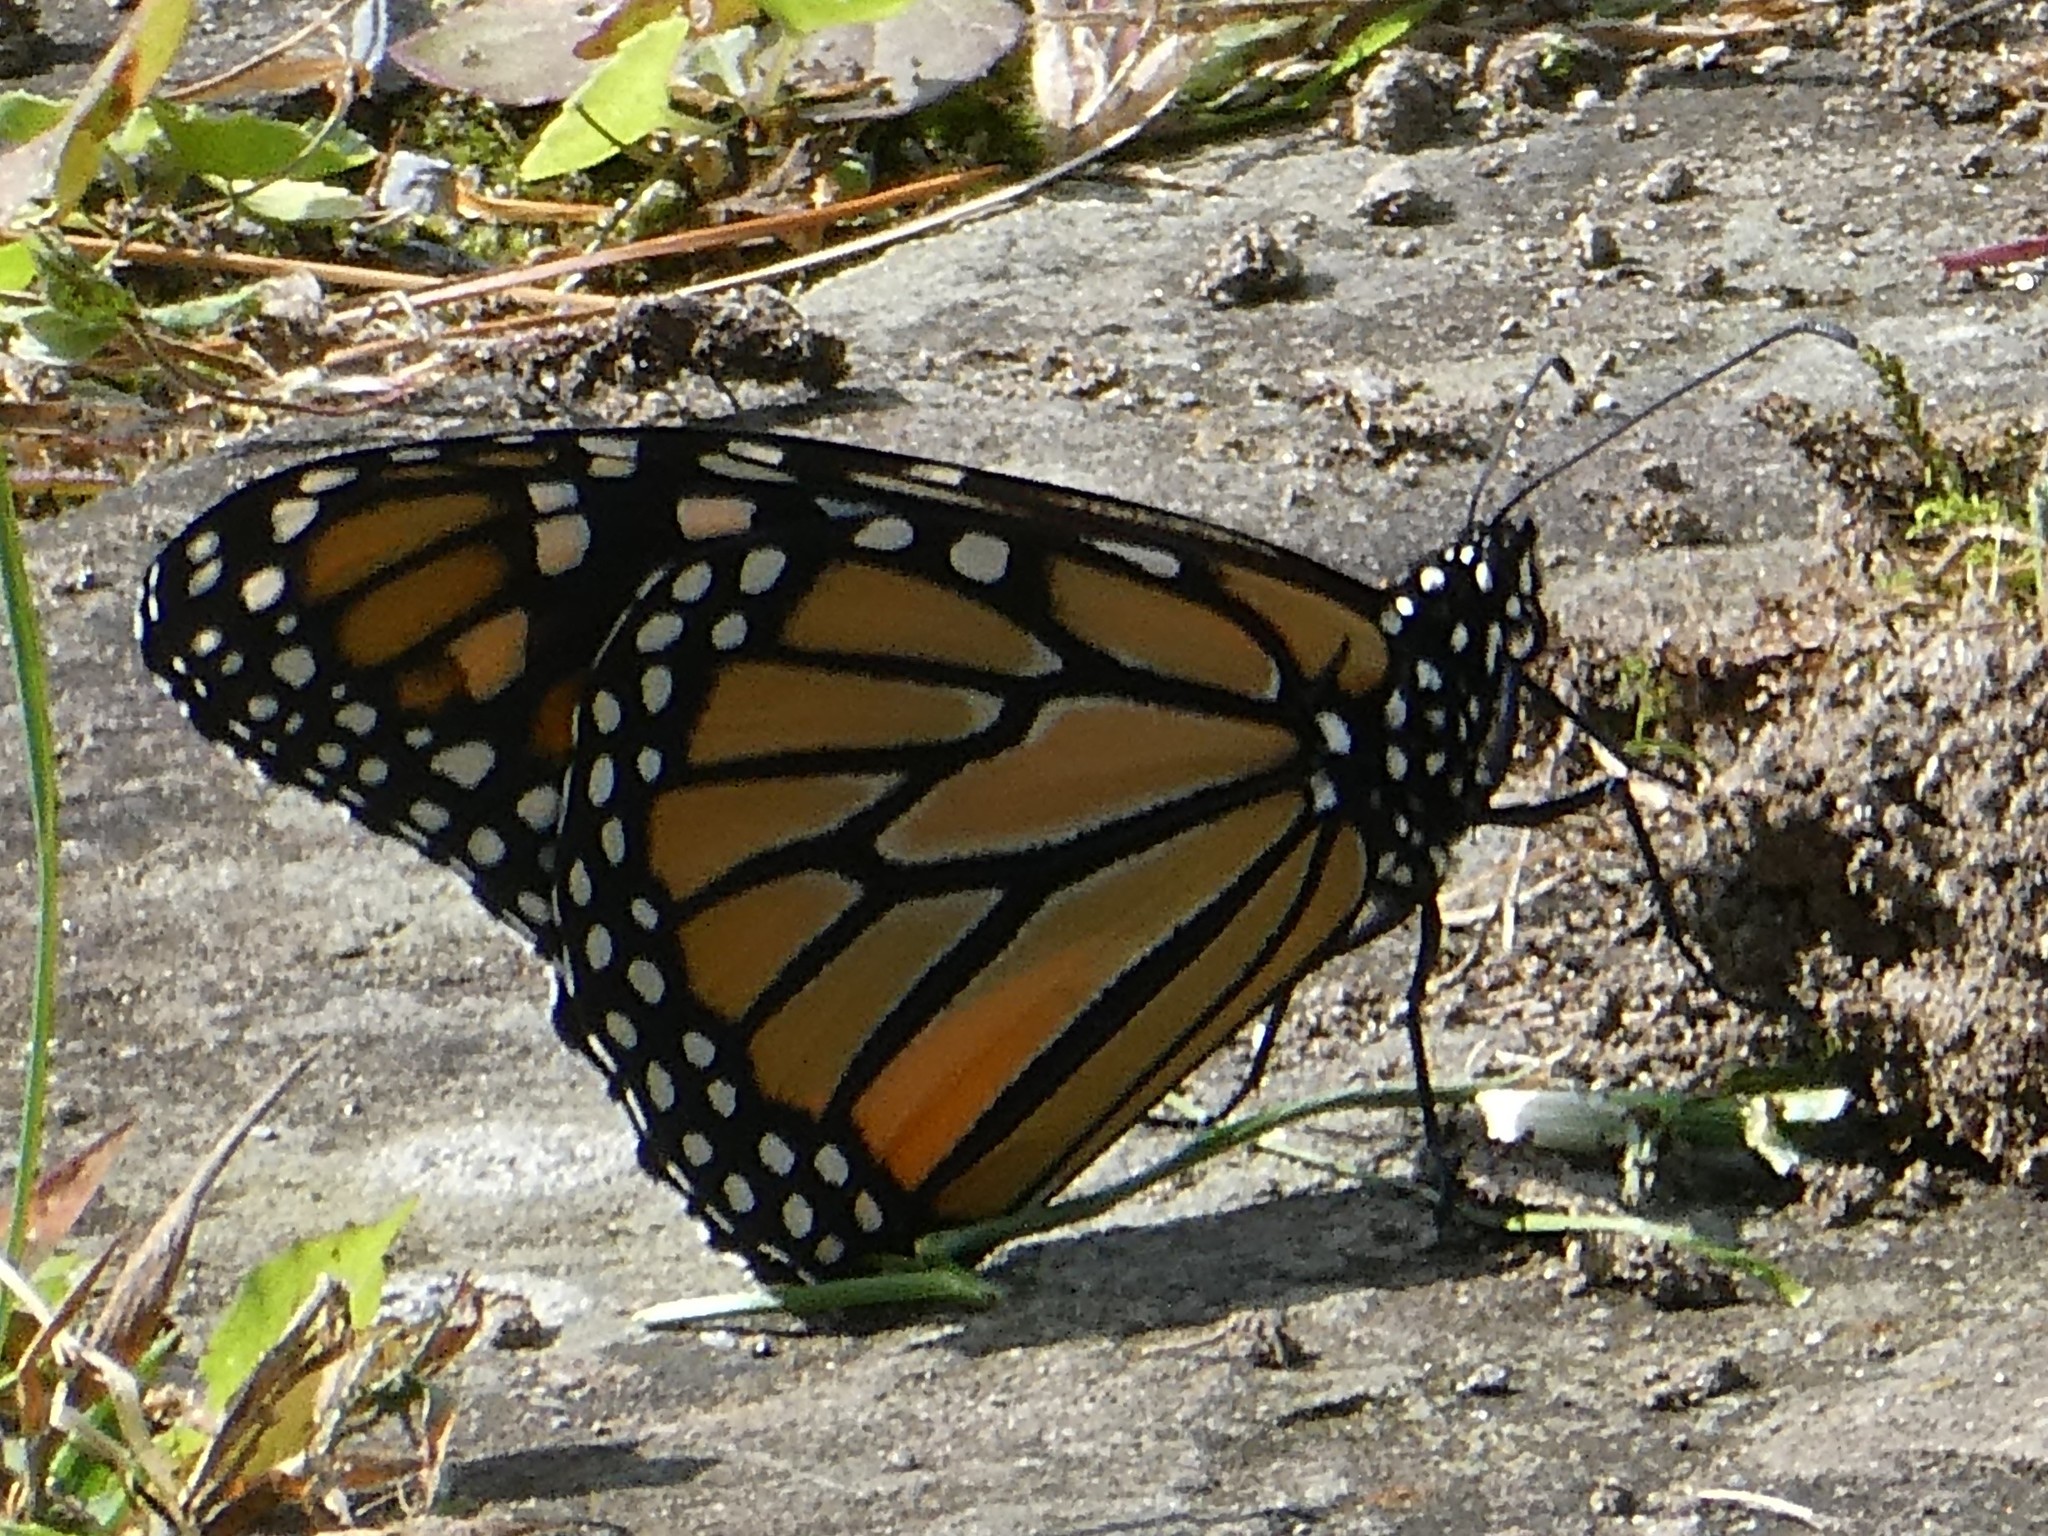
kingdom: Animalia
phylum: Arthropoda
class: Insecta
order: Lepidoptera
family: Nymphalidae
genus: Danaus
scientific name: Danaus plexippus
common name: Monarch
